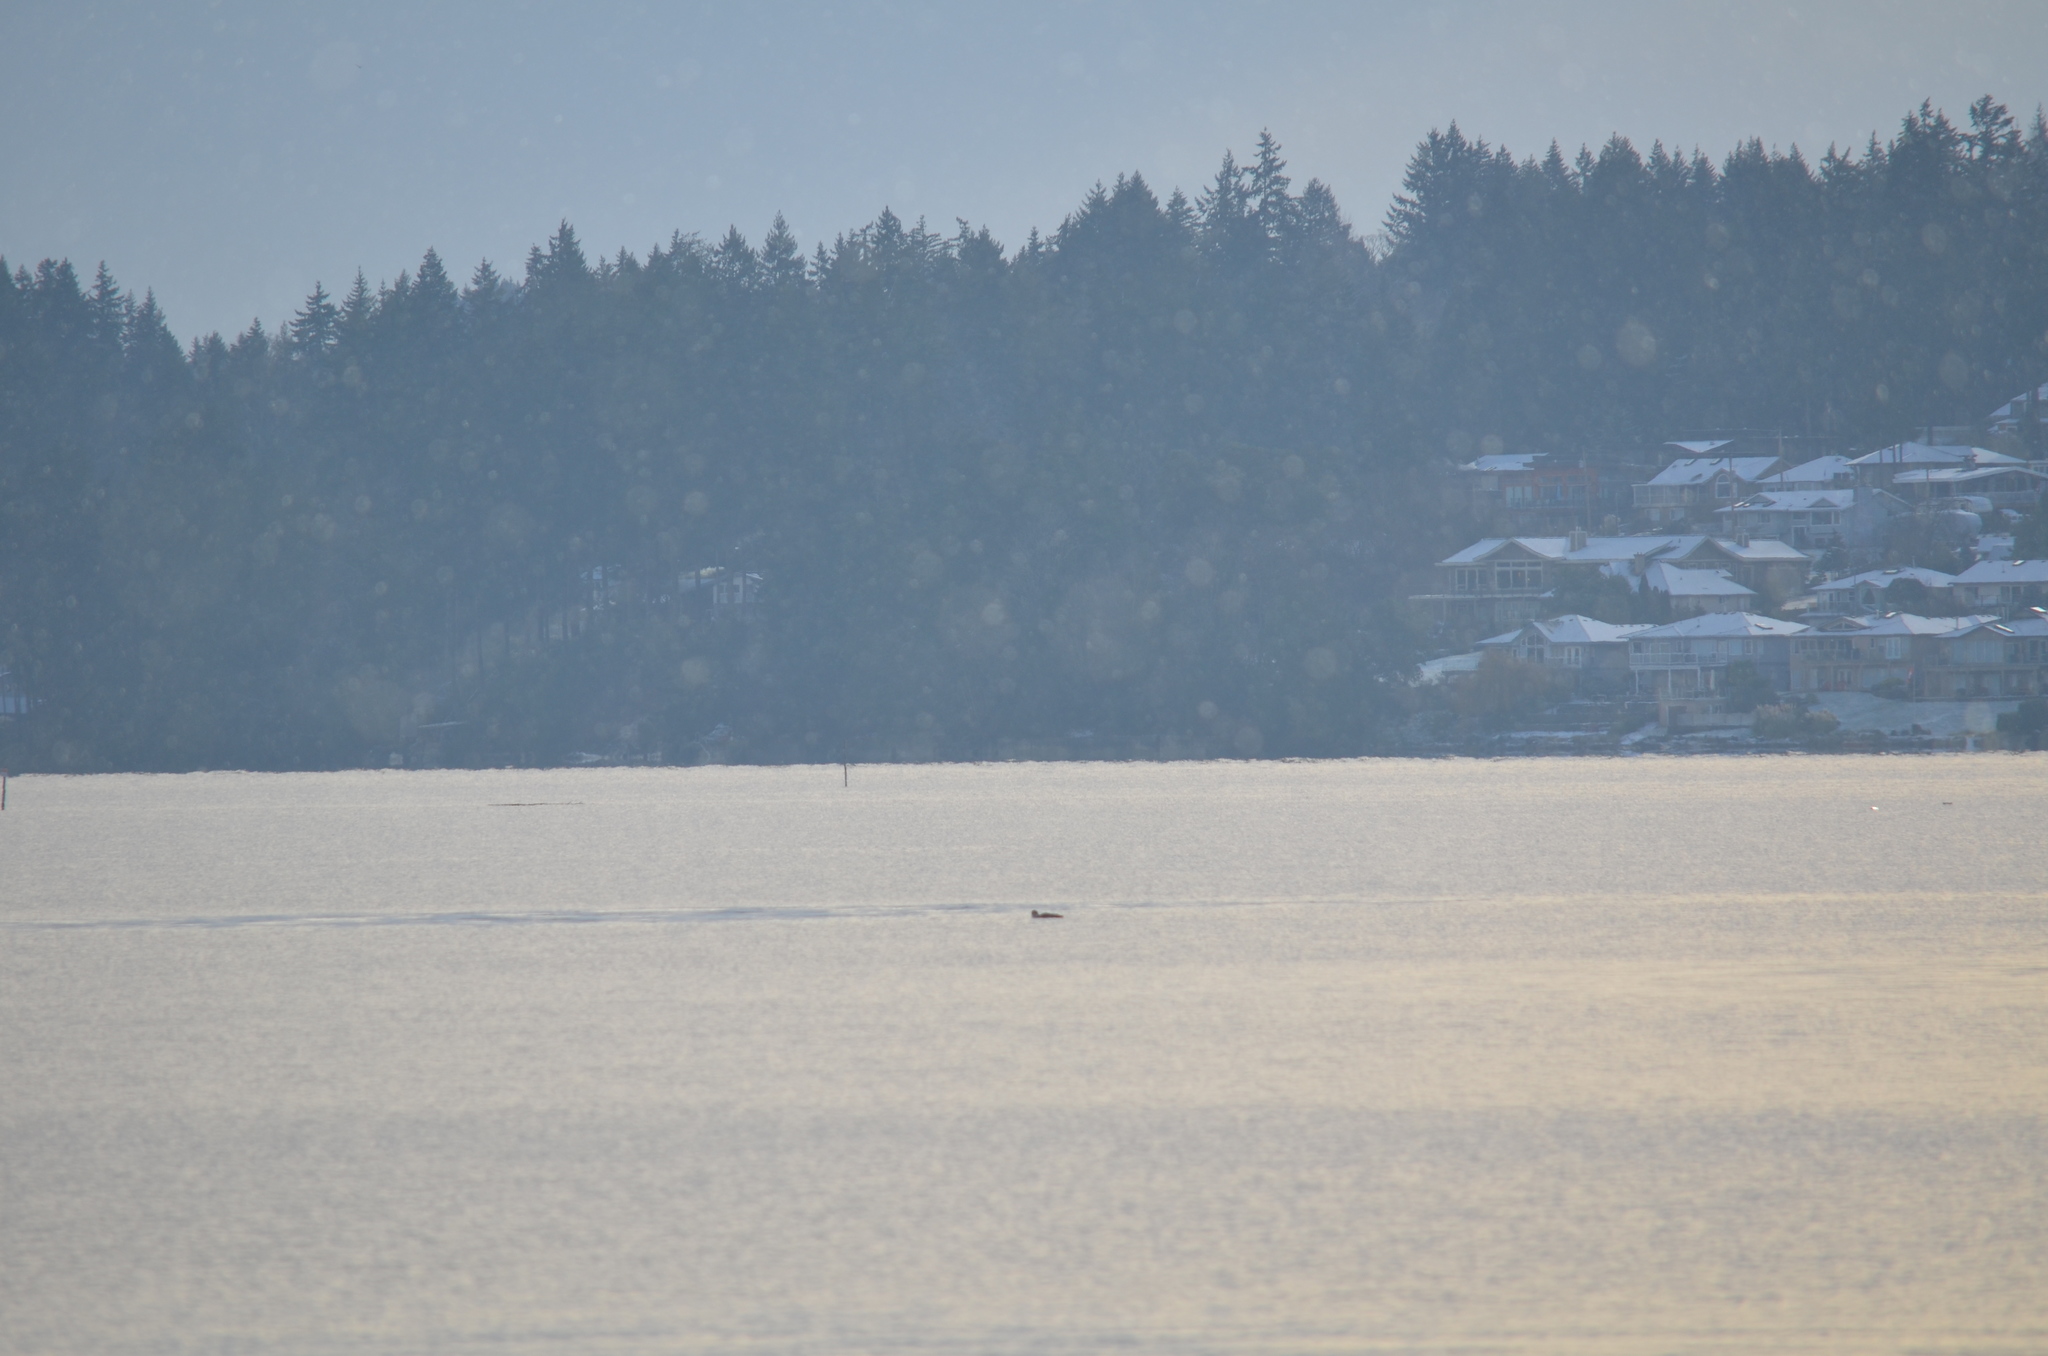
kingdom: Animalia
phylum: Chordata
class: Aves
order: Gaviiformes
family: Gaviidae
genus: Gavia
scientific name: Gavia immer
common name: Common loon
